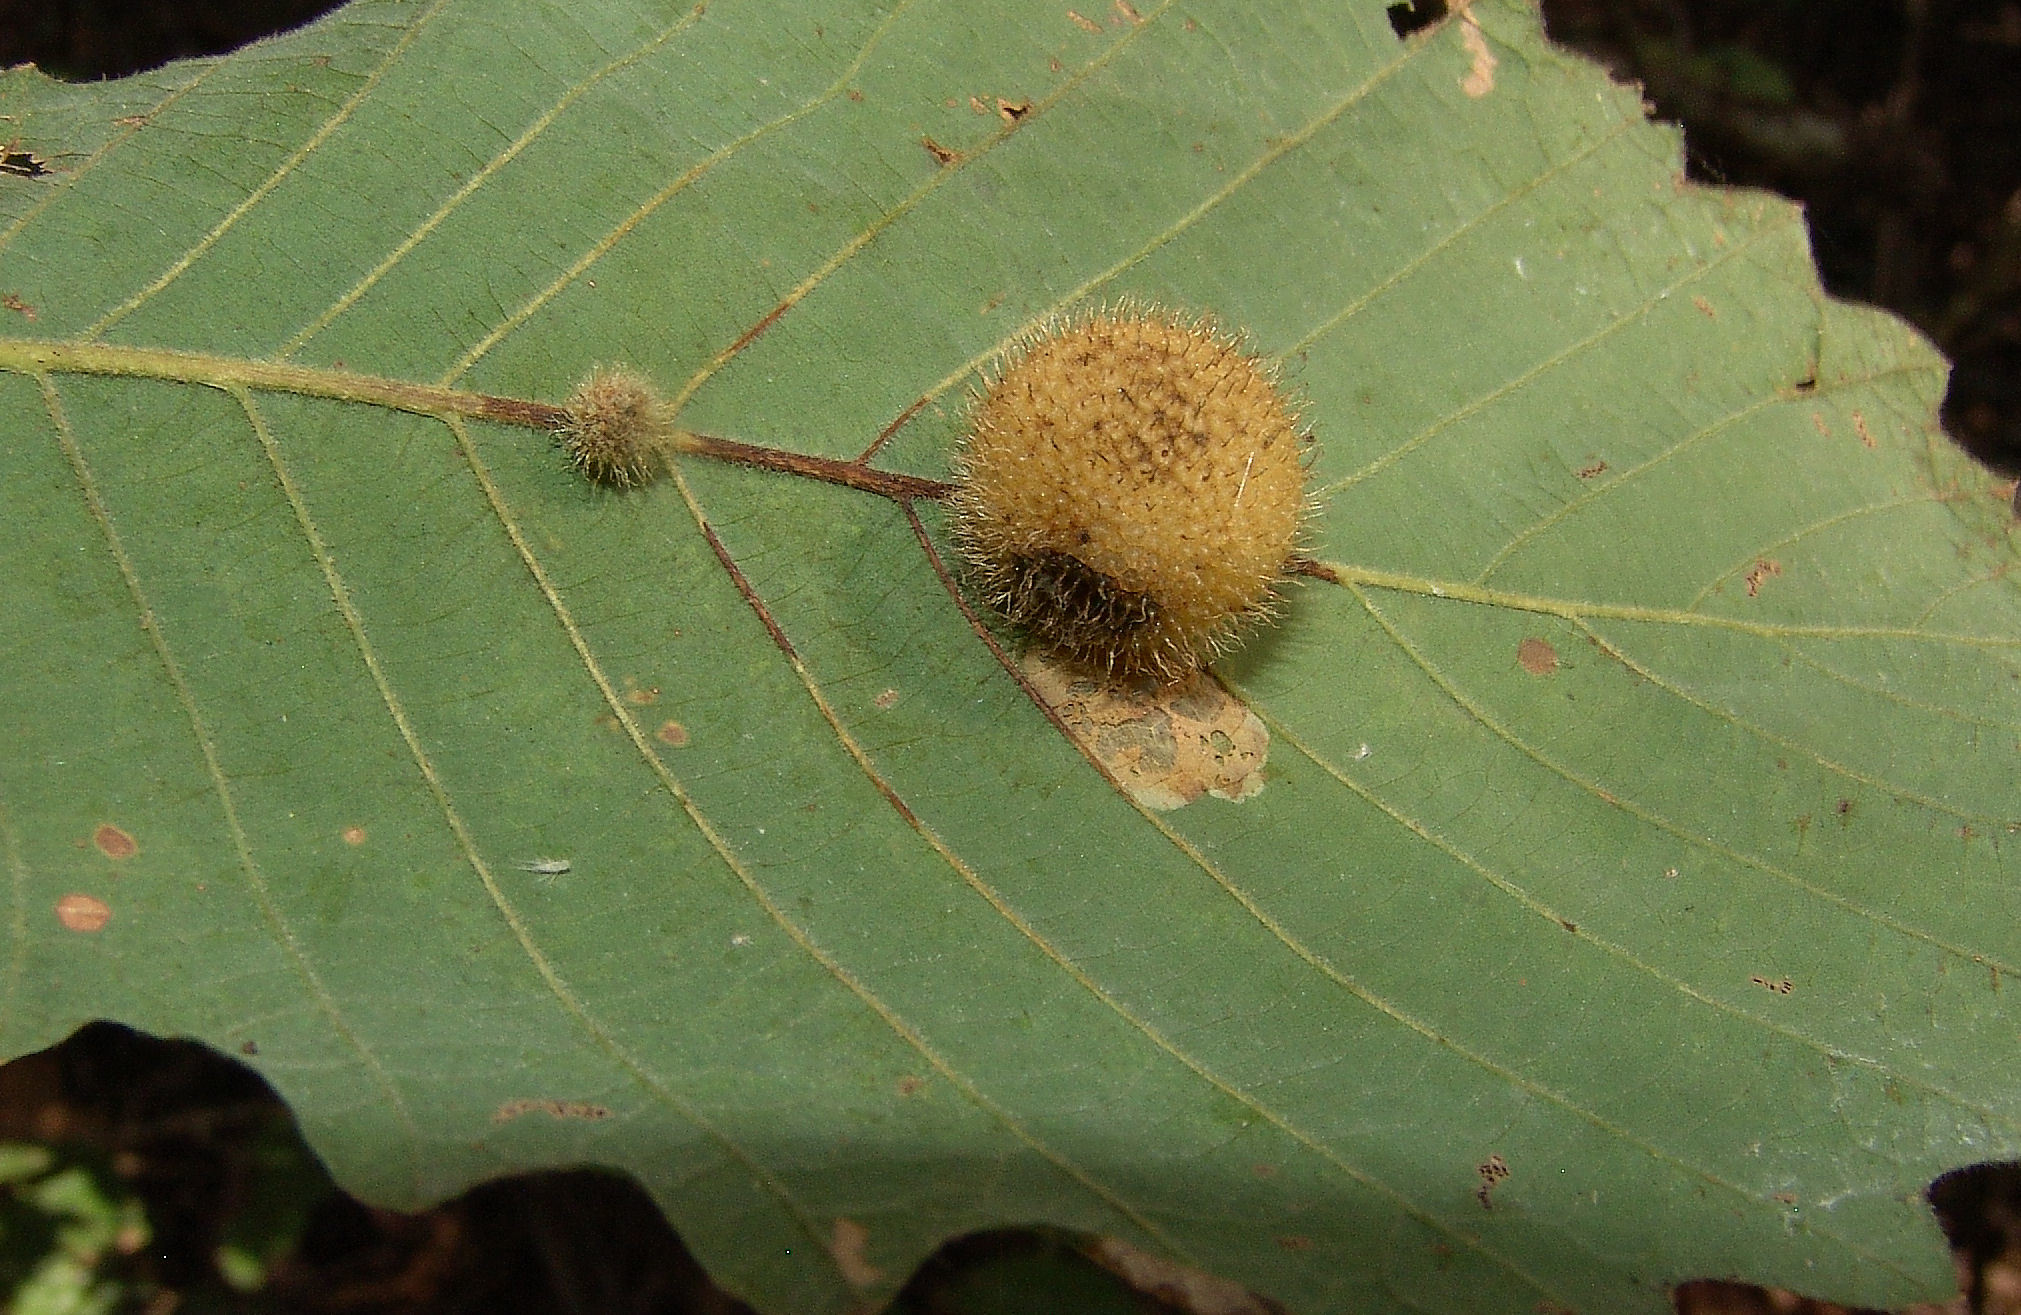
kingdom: Animalia
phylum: Arthropoda
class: Insecta
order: Hymenoptera
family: Cynipidae
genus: Acraspis
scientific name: Acraspis
